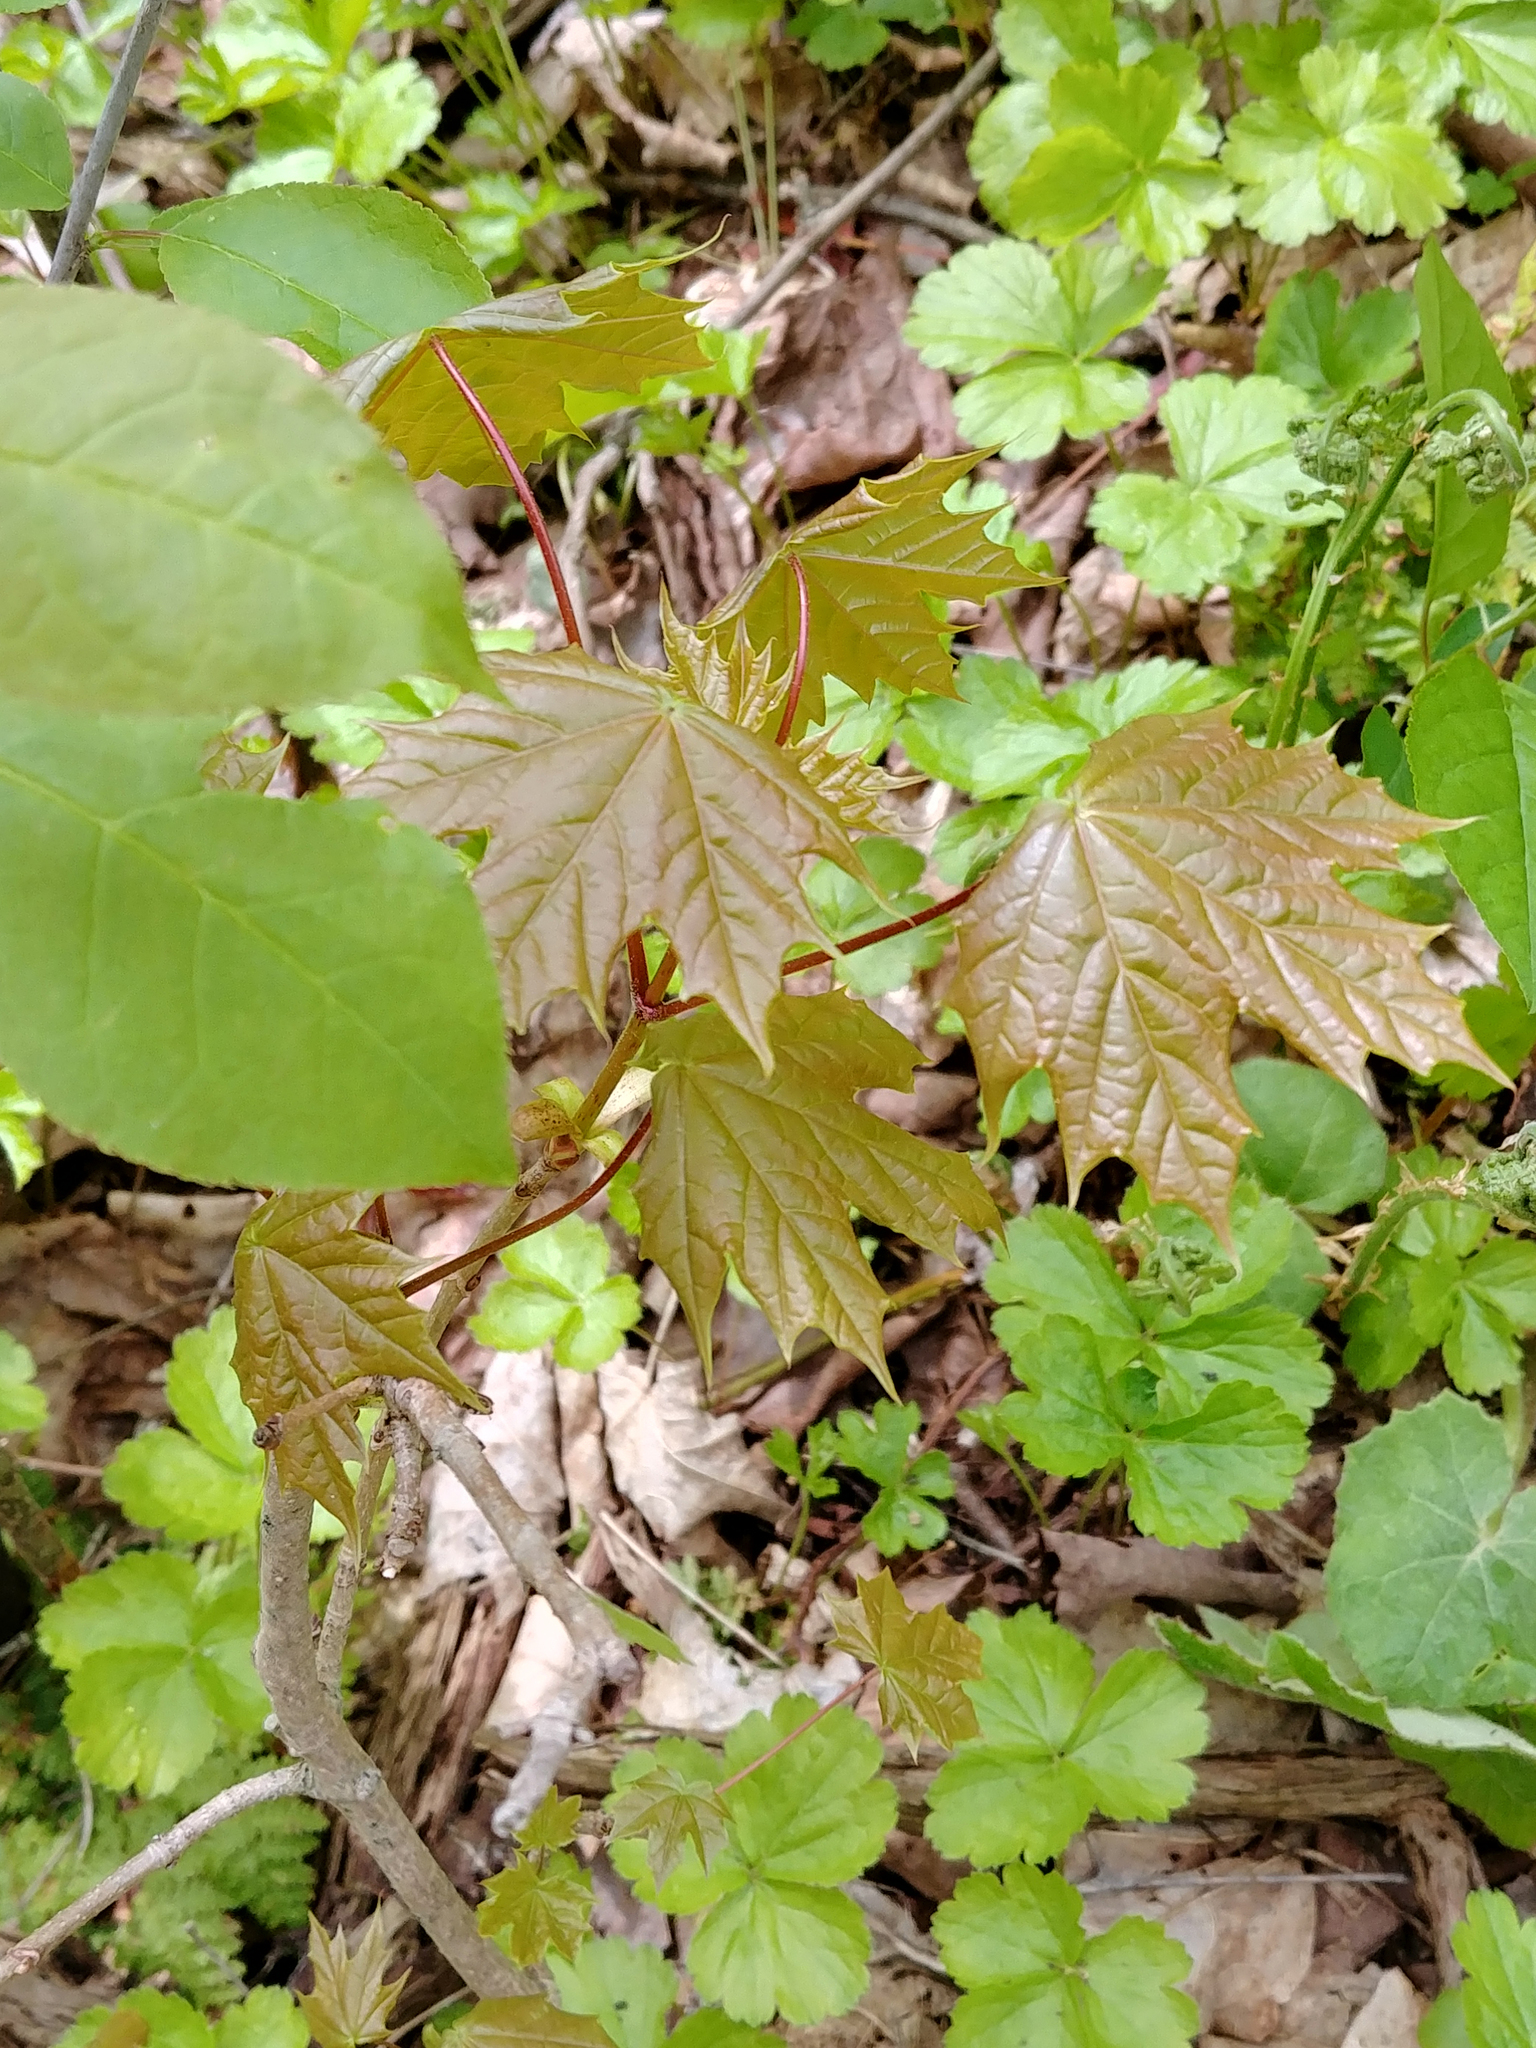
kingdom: Plantae
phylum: Tracheophyta
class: Magnoliopsida
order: Sapindales
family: Sapindaceae
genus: Acer
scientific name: Acer platanoides
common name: Norway maple
